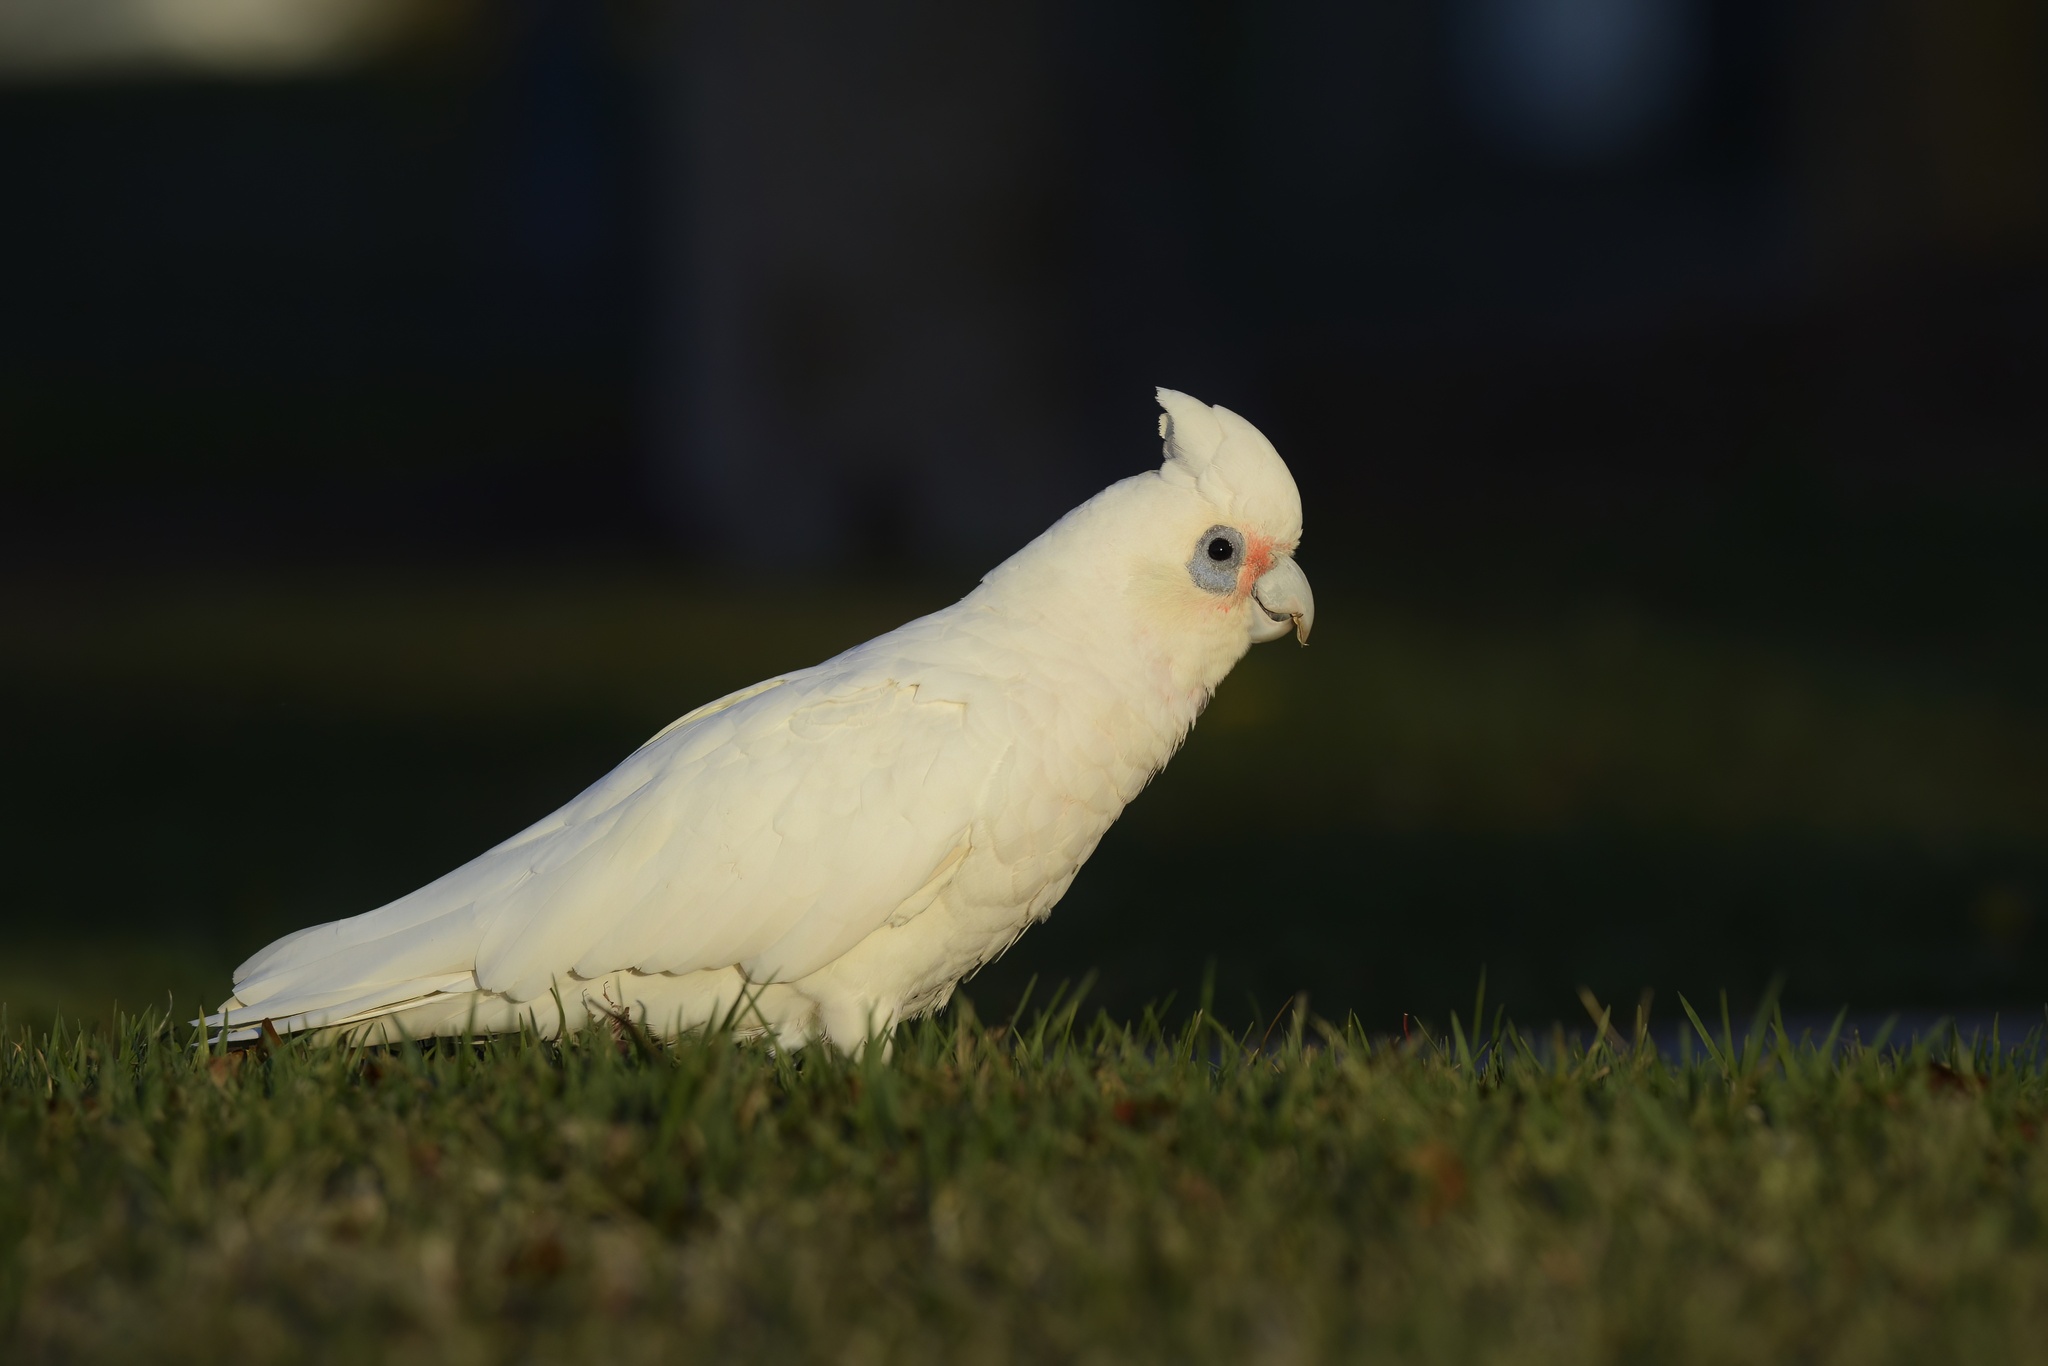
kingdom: Animalia
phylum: Chordata
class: Aves
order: Psittaciformes
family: Psittacidae
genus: Cacatua
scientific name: Cacatua sanguinea
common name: Little corella
